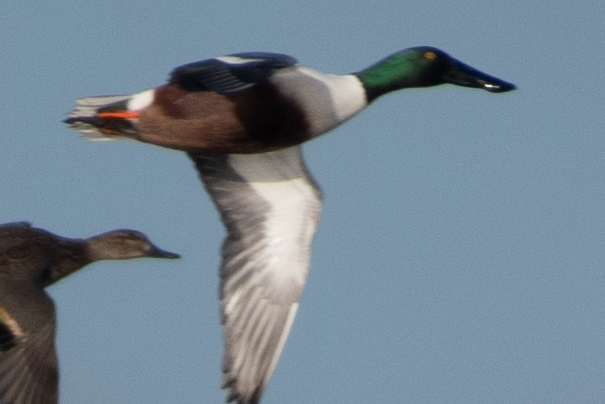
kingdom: Animalia
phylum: Chordata
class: Aves
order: Anseriformes
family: Anatidae
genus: Spatula
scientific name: Spatula clypeata
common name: Northern shoveler
